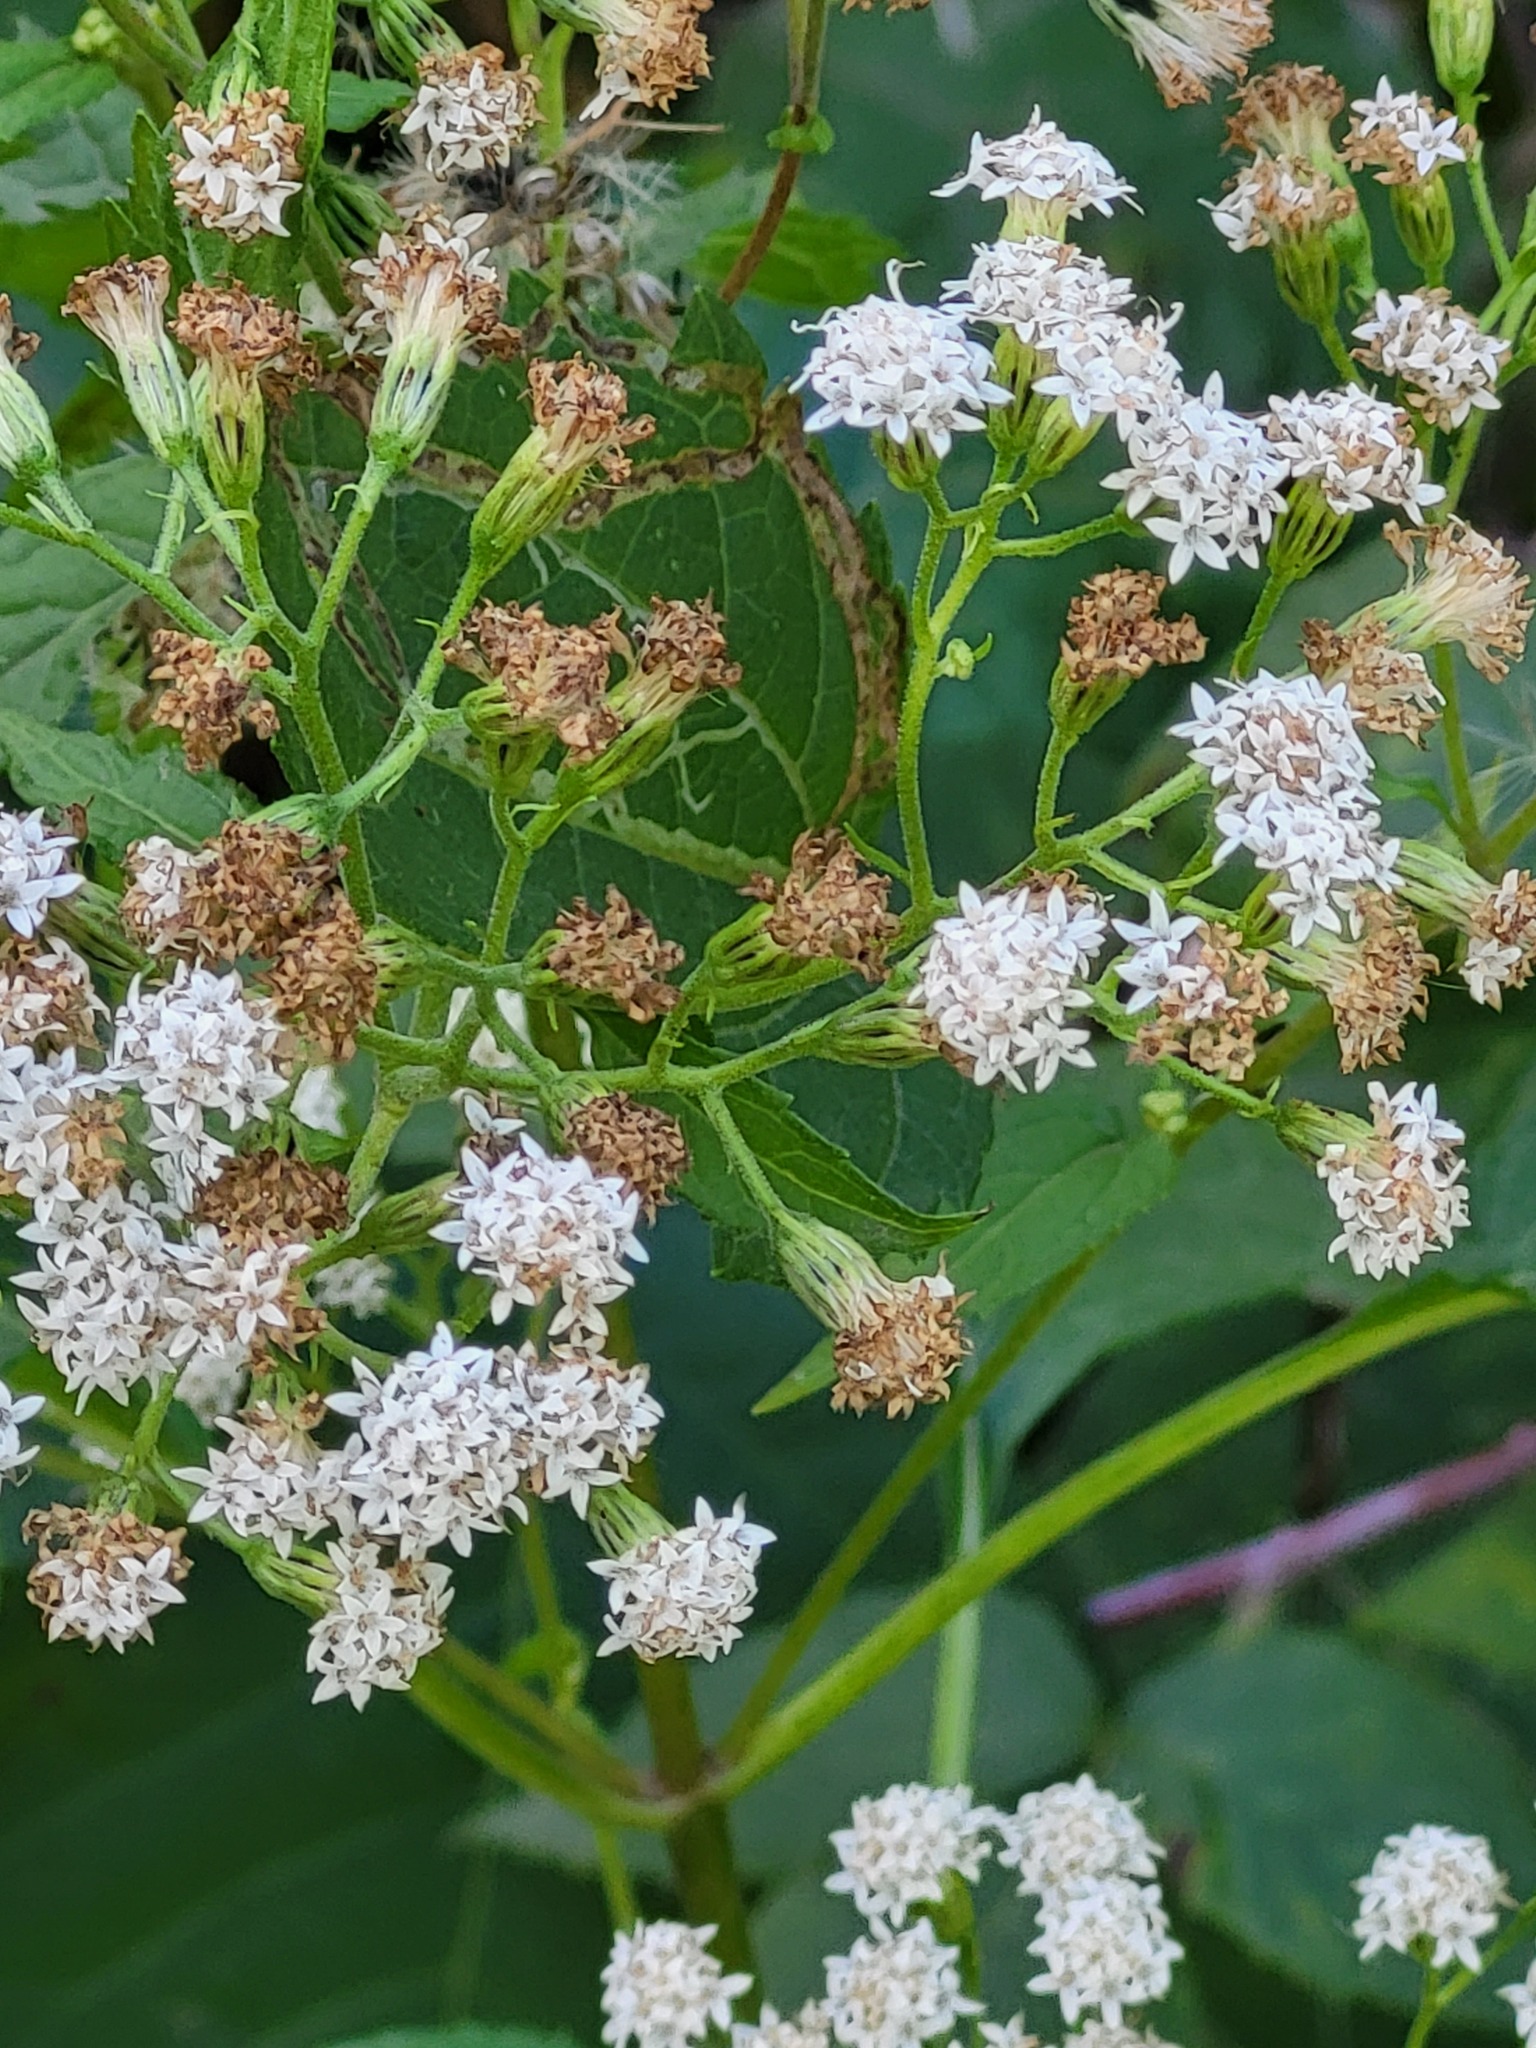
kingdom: Plantae
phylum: Tracheophyta
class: Magnoliopsida
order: Asterales
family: Asteraceae
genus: Ageratina
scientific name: Ageratina altissima
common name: White snakeroot
